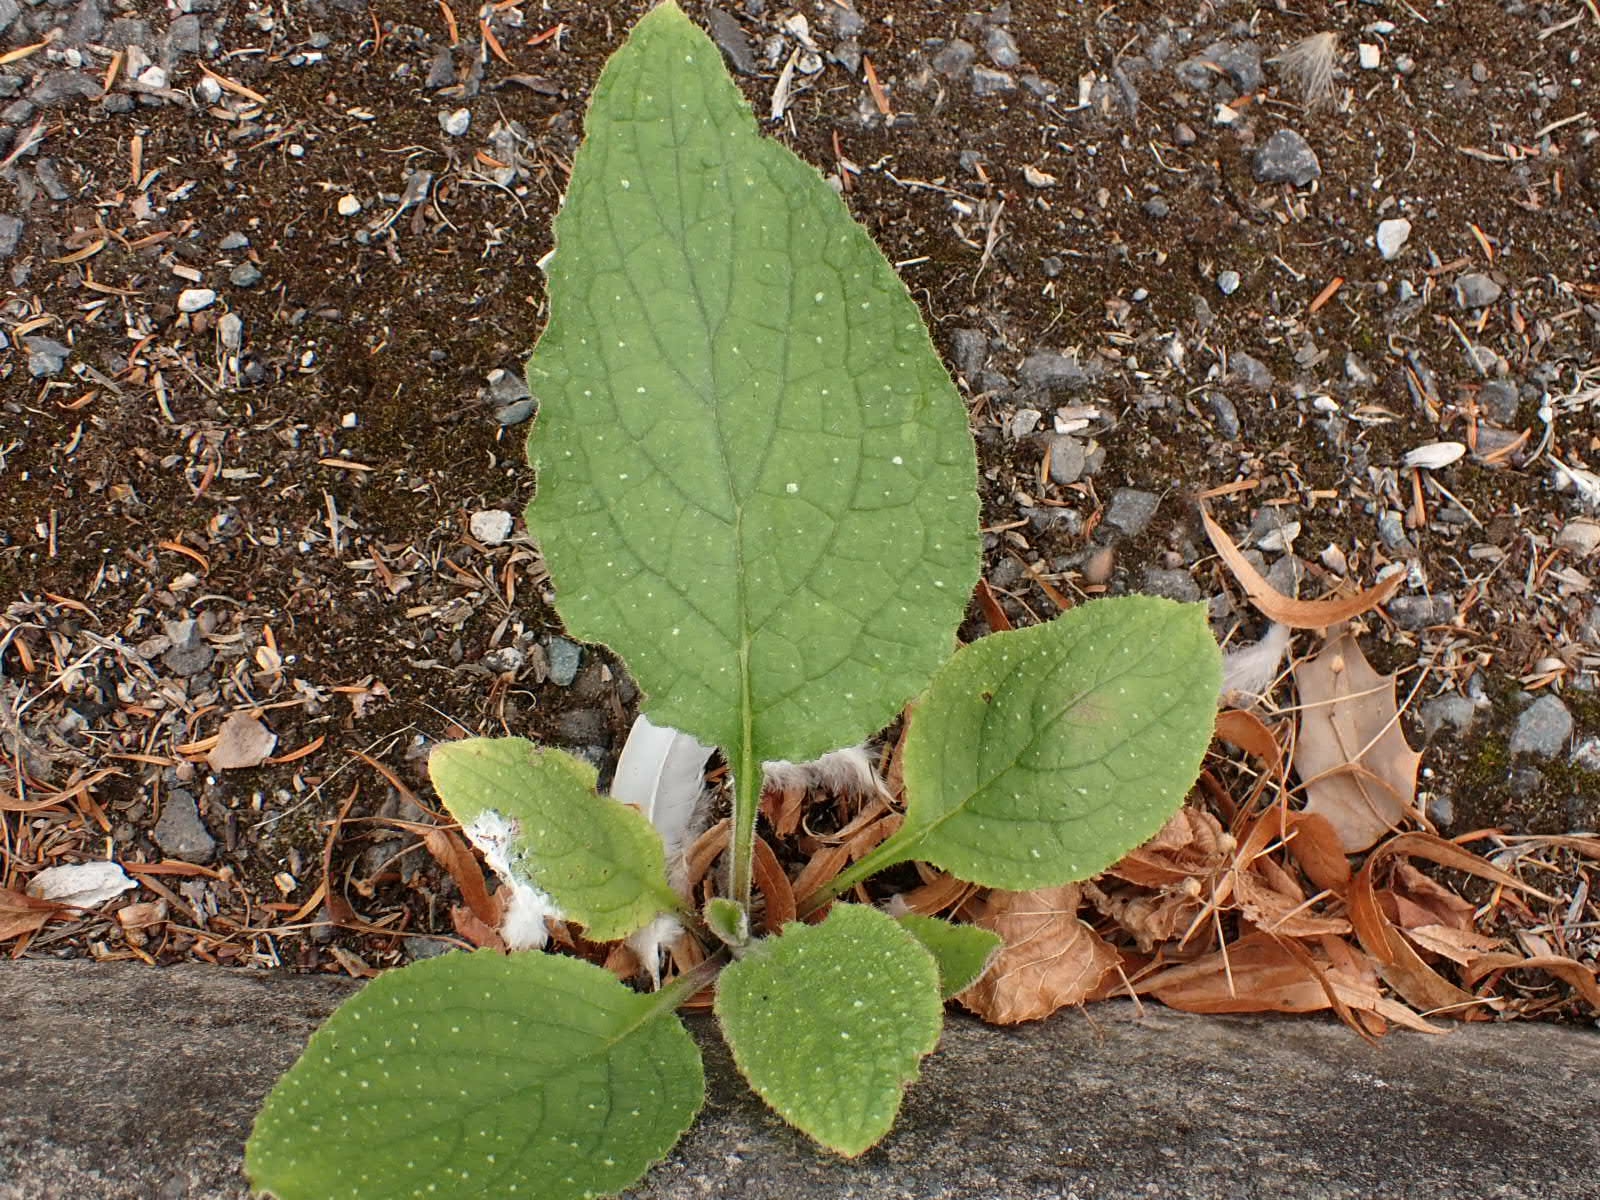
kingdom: Plantae
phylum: Tracheophyta
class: Magnoliopsida
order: Boraginales
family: Boraginaceae
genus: Pentaglottis
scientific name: Pentaglottis sempervirens
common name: Green alkanet
